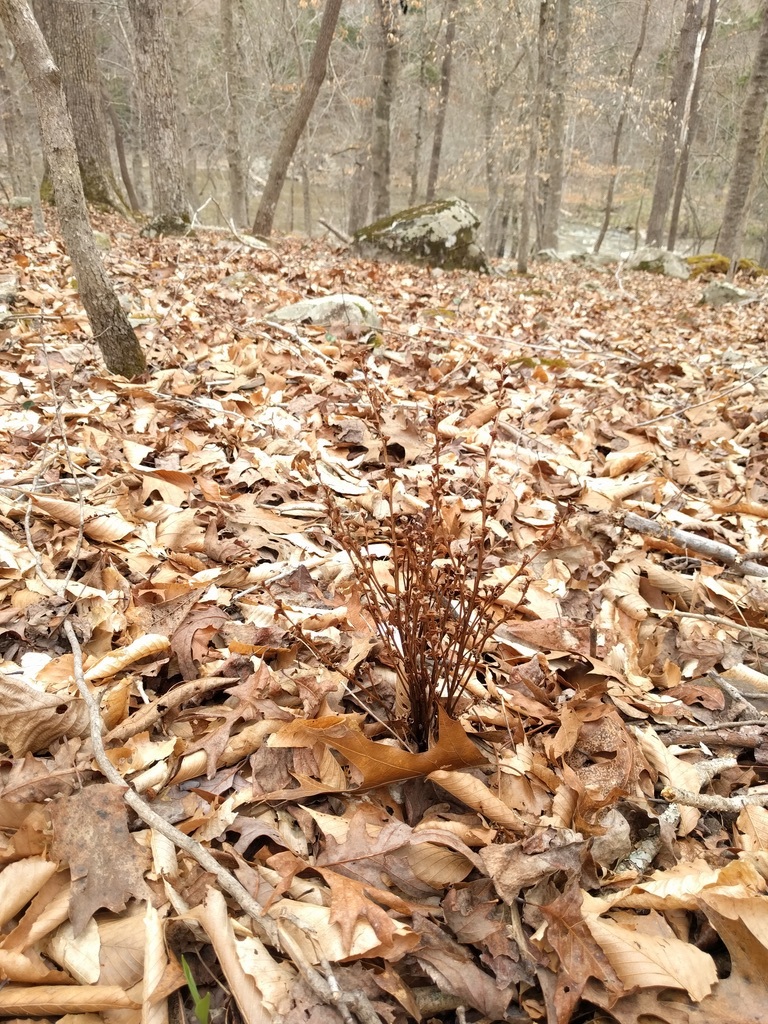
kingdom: Plantae
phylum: Tracheophyta
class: Magnoliopsida
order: Lamiales
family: Orobanchaceae
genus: Epifagus
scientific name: Epifagus virginiana
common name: Beechdrops
